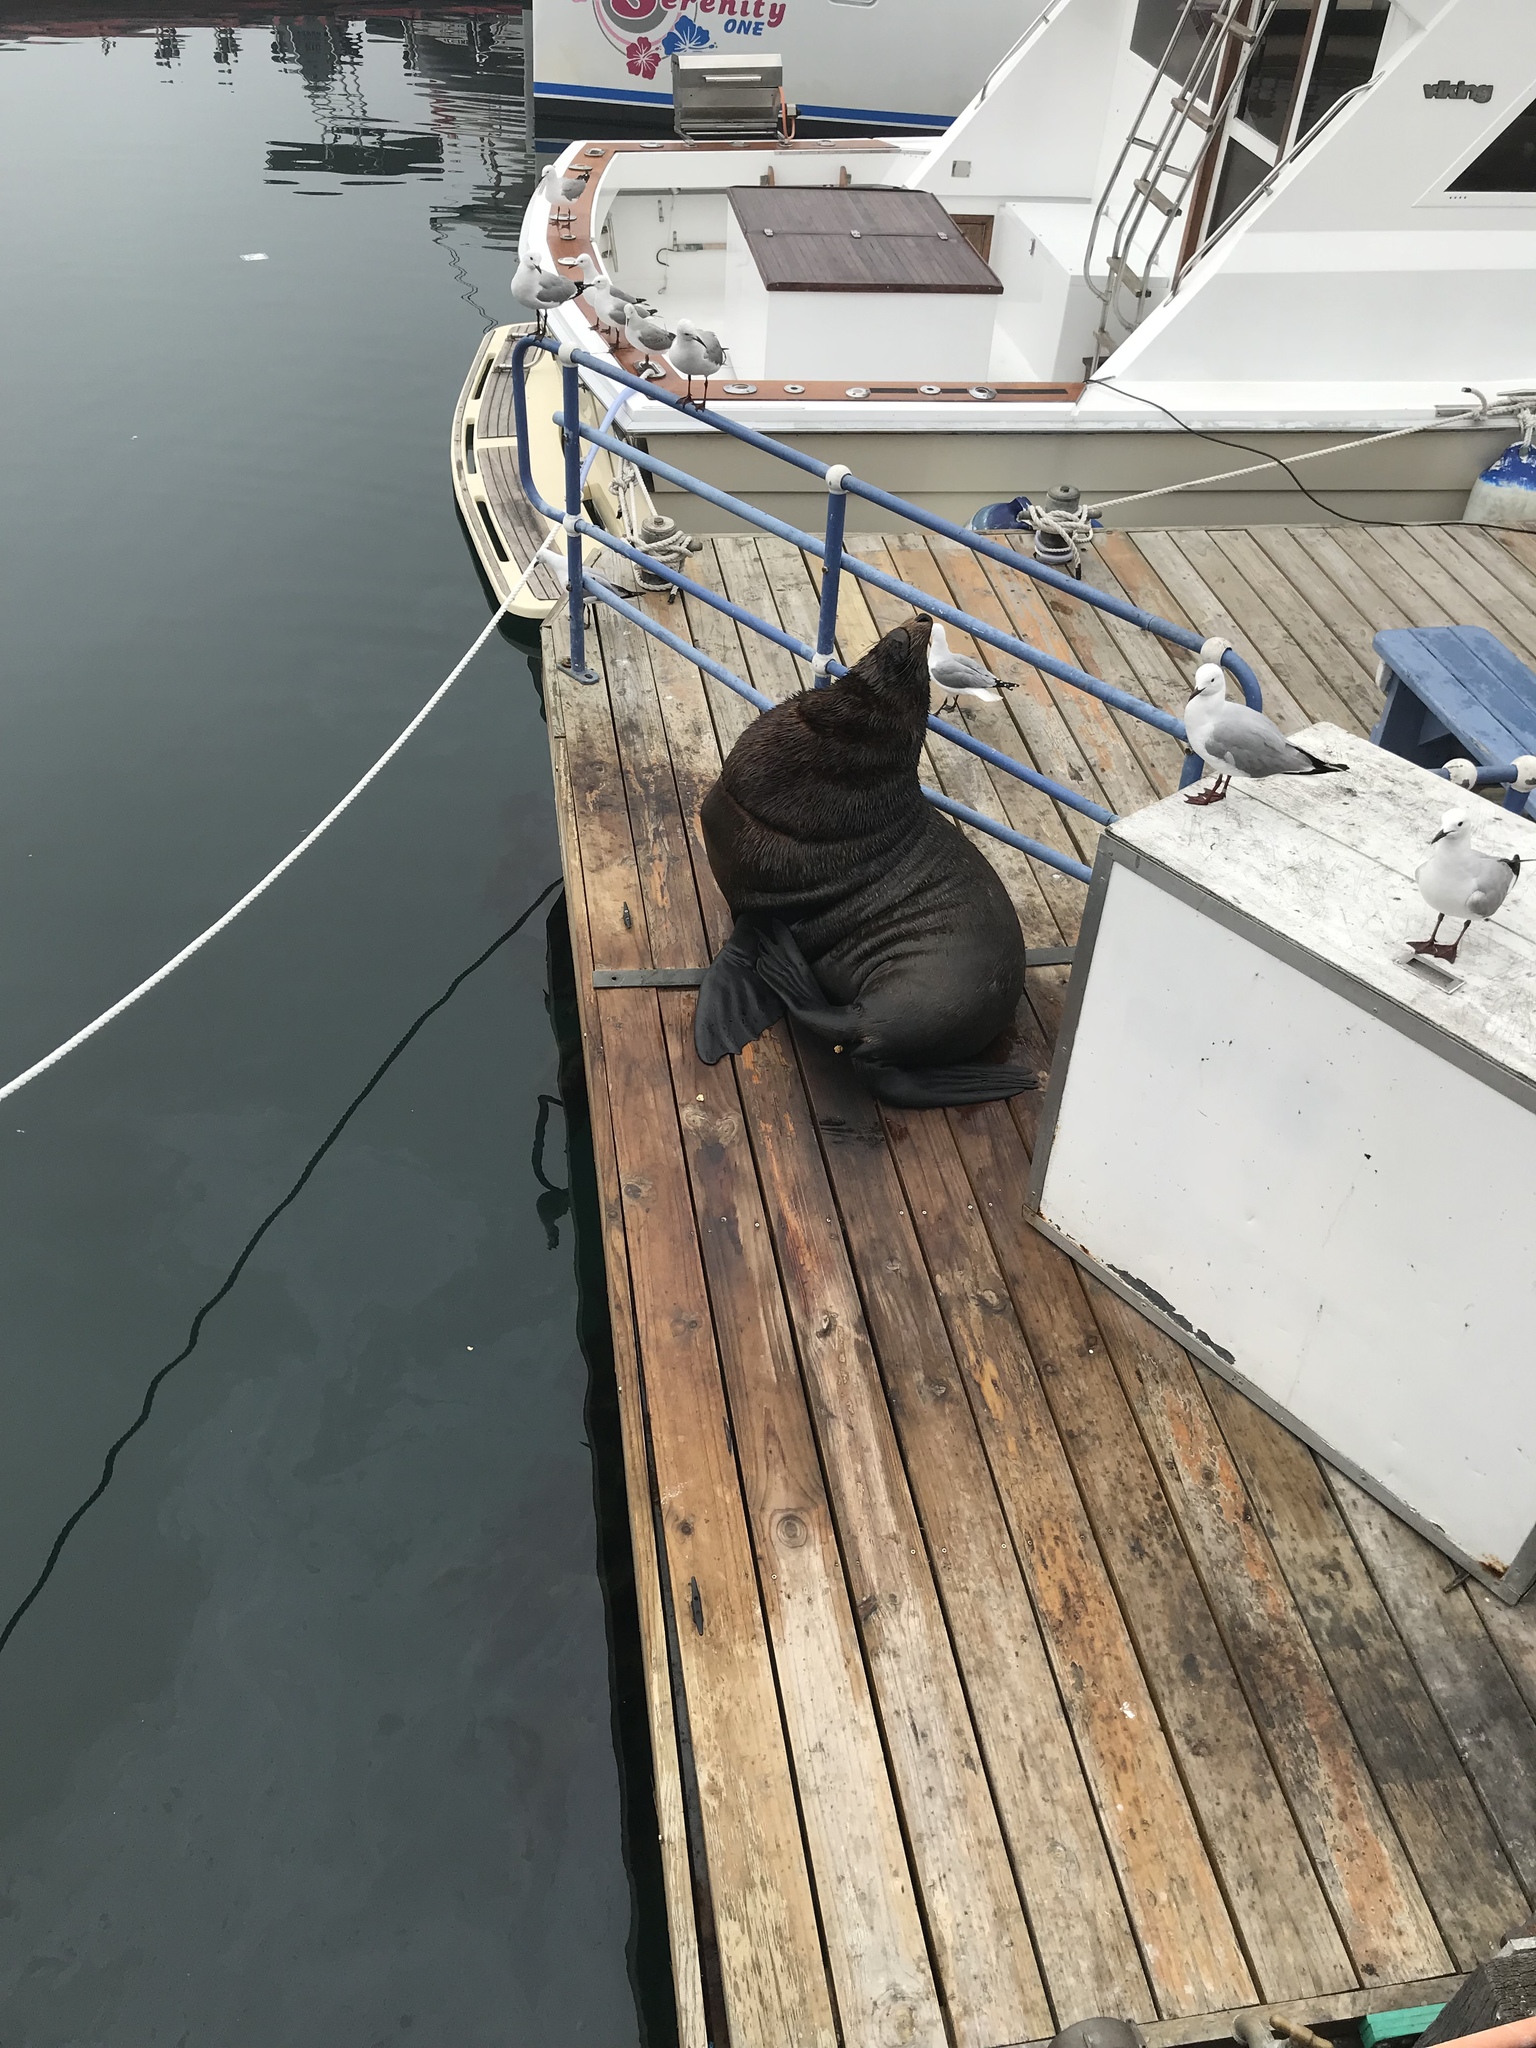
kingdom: Animalia
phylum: Chordata
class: Mammalia
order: Carnivora
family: Otariidae
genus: Arctocephalus
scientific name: Arctocephalus pusillus
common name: Brown fur seal
